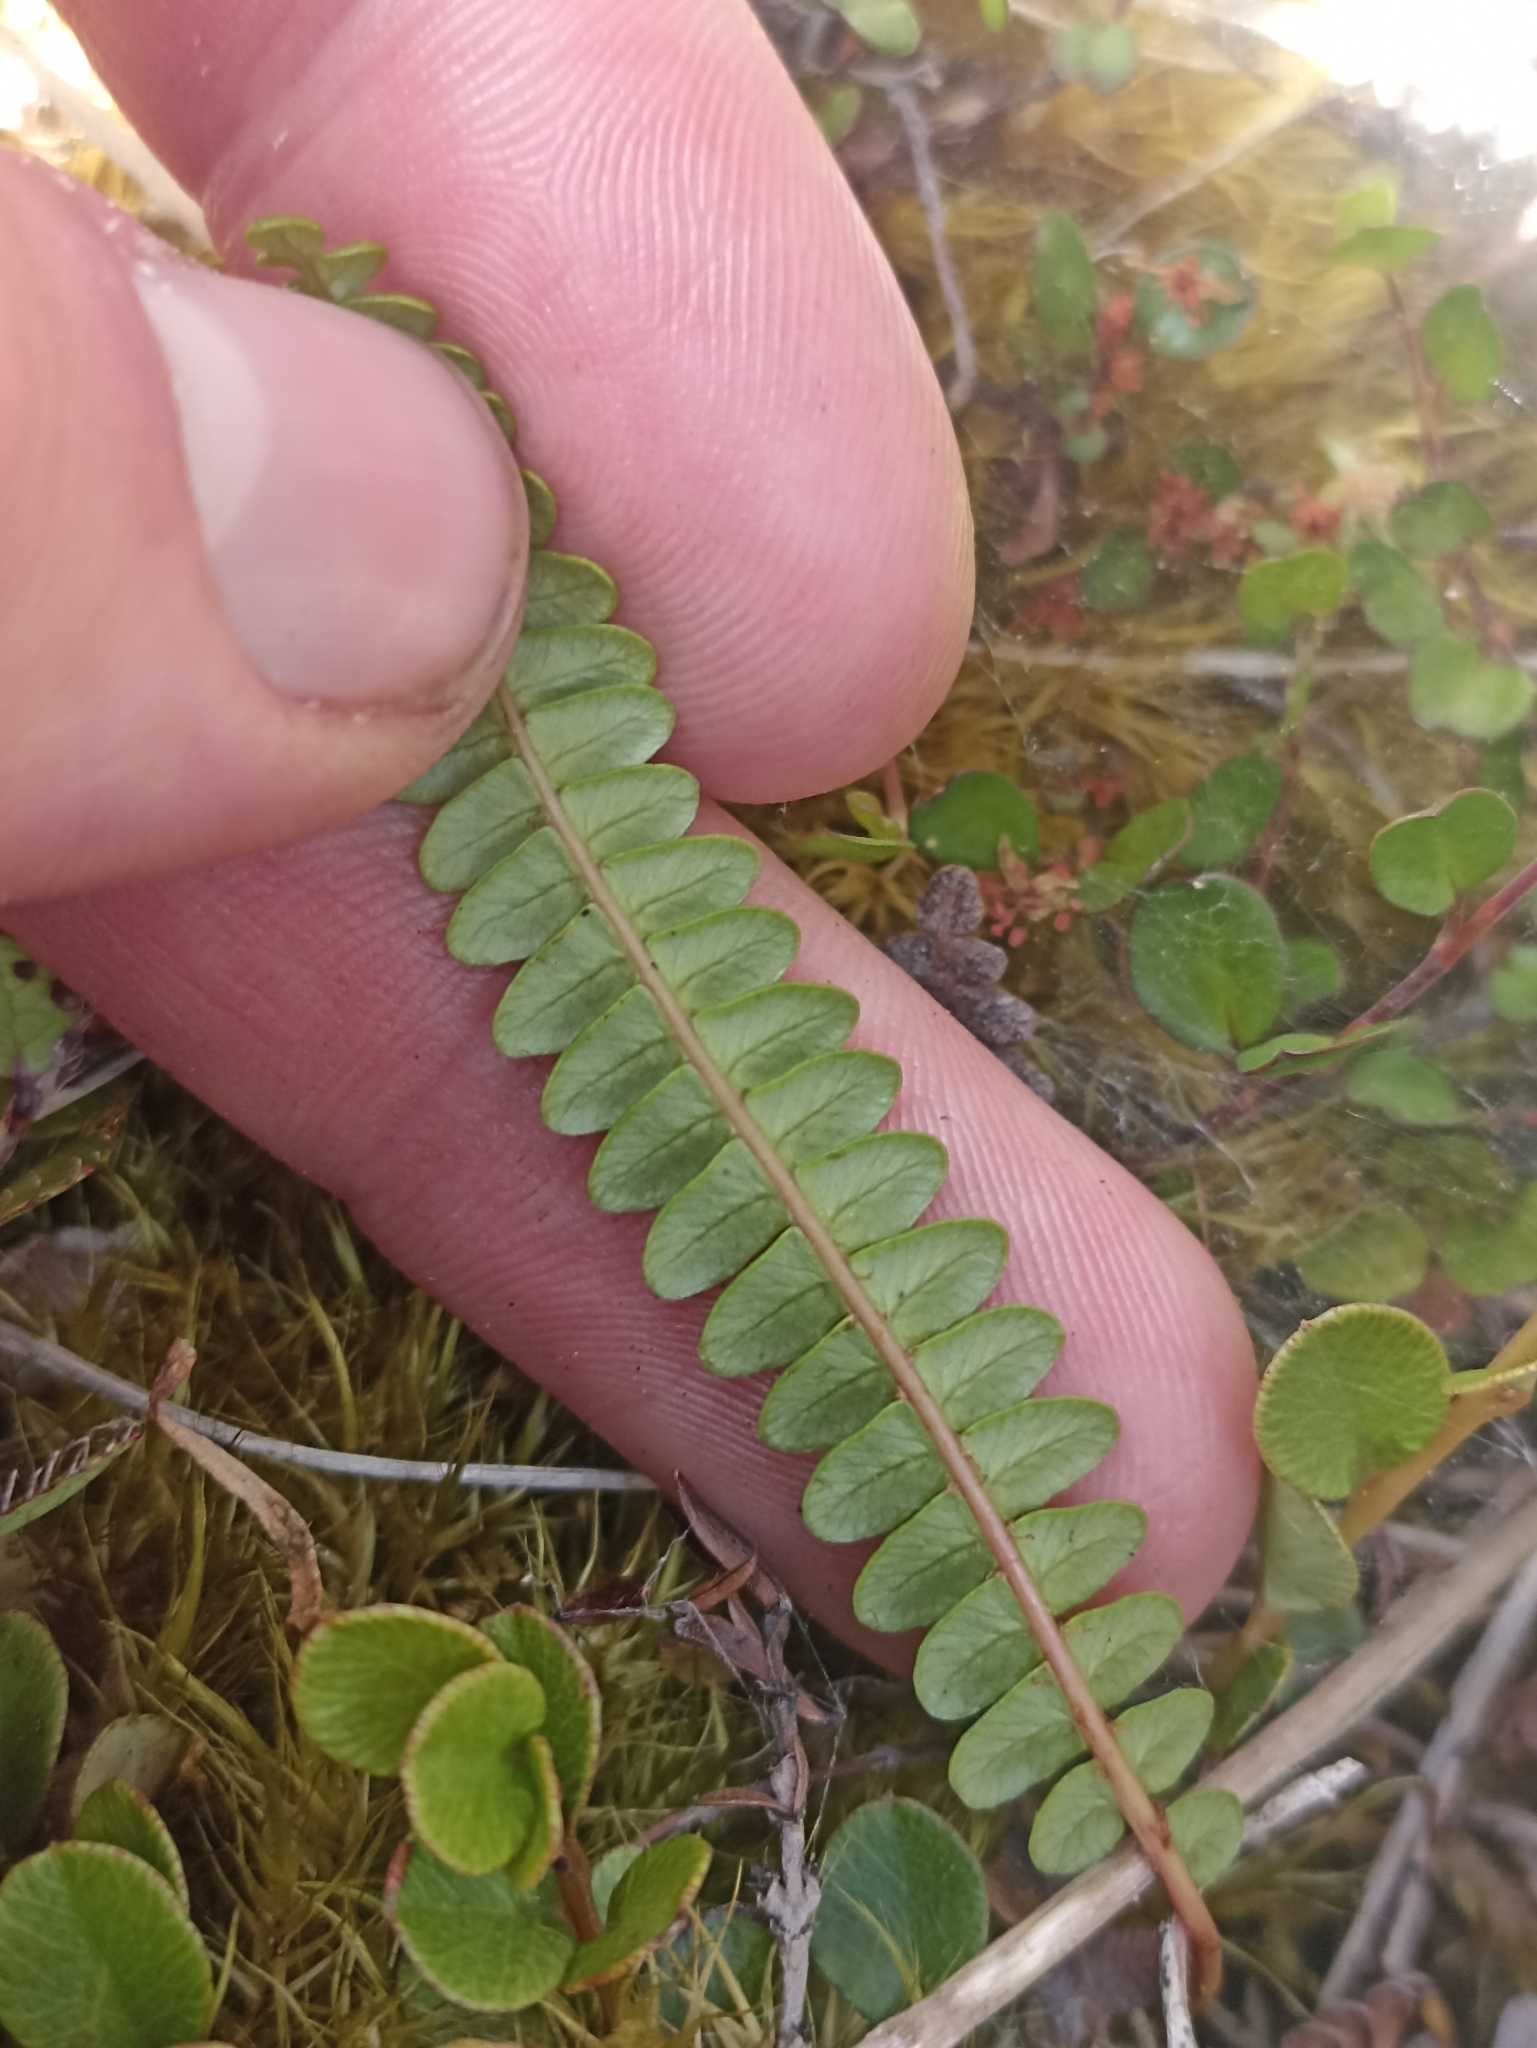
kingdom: Plantae
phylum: Tracheophyta
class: Polypodiopsida
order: Polypodiales
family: Blechnaceae
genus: Austroblechnum
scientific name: Austroblechnum penna-marina
